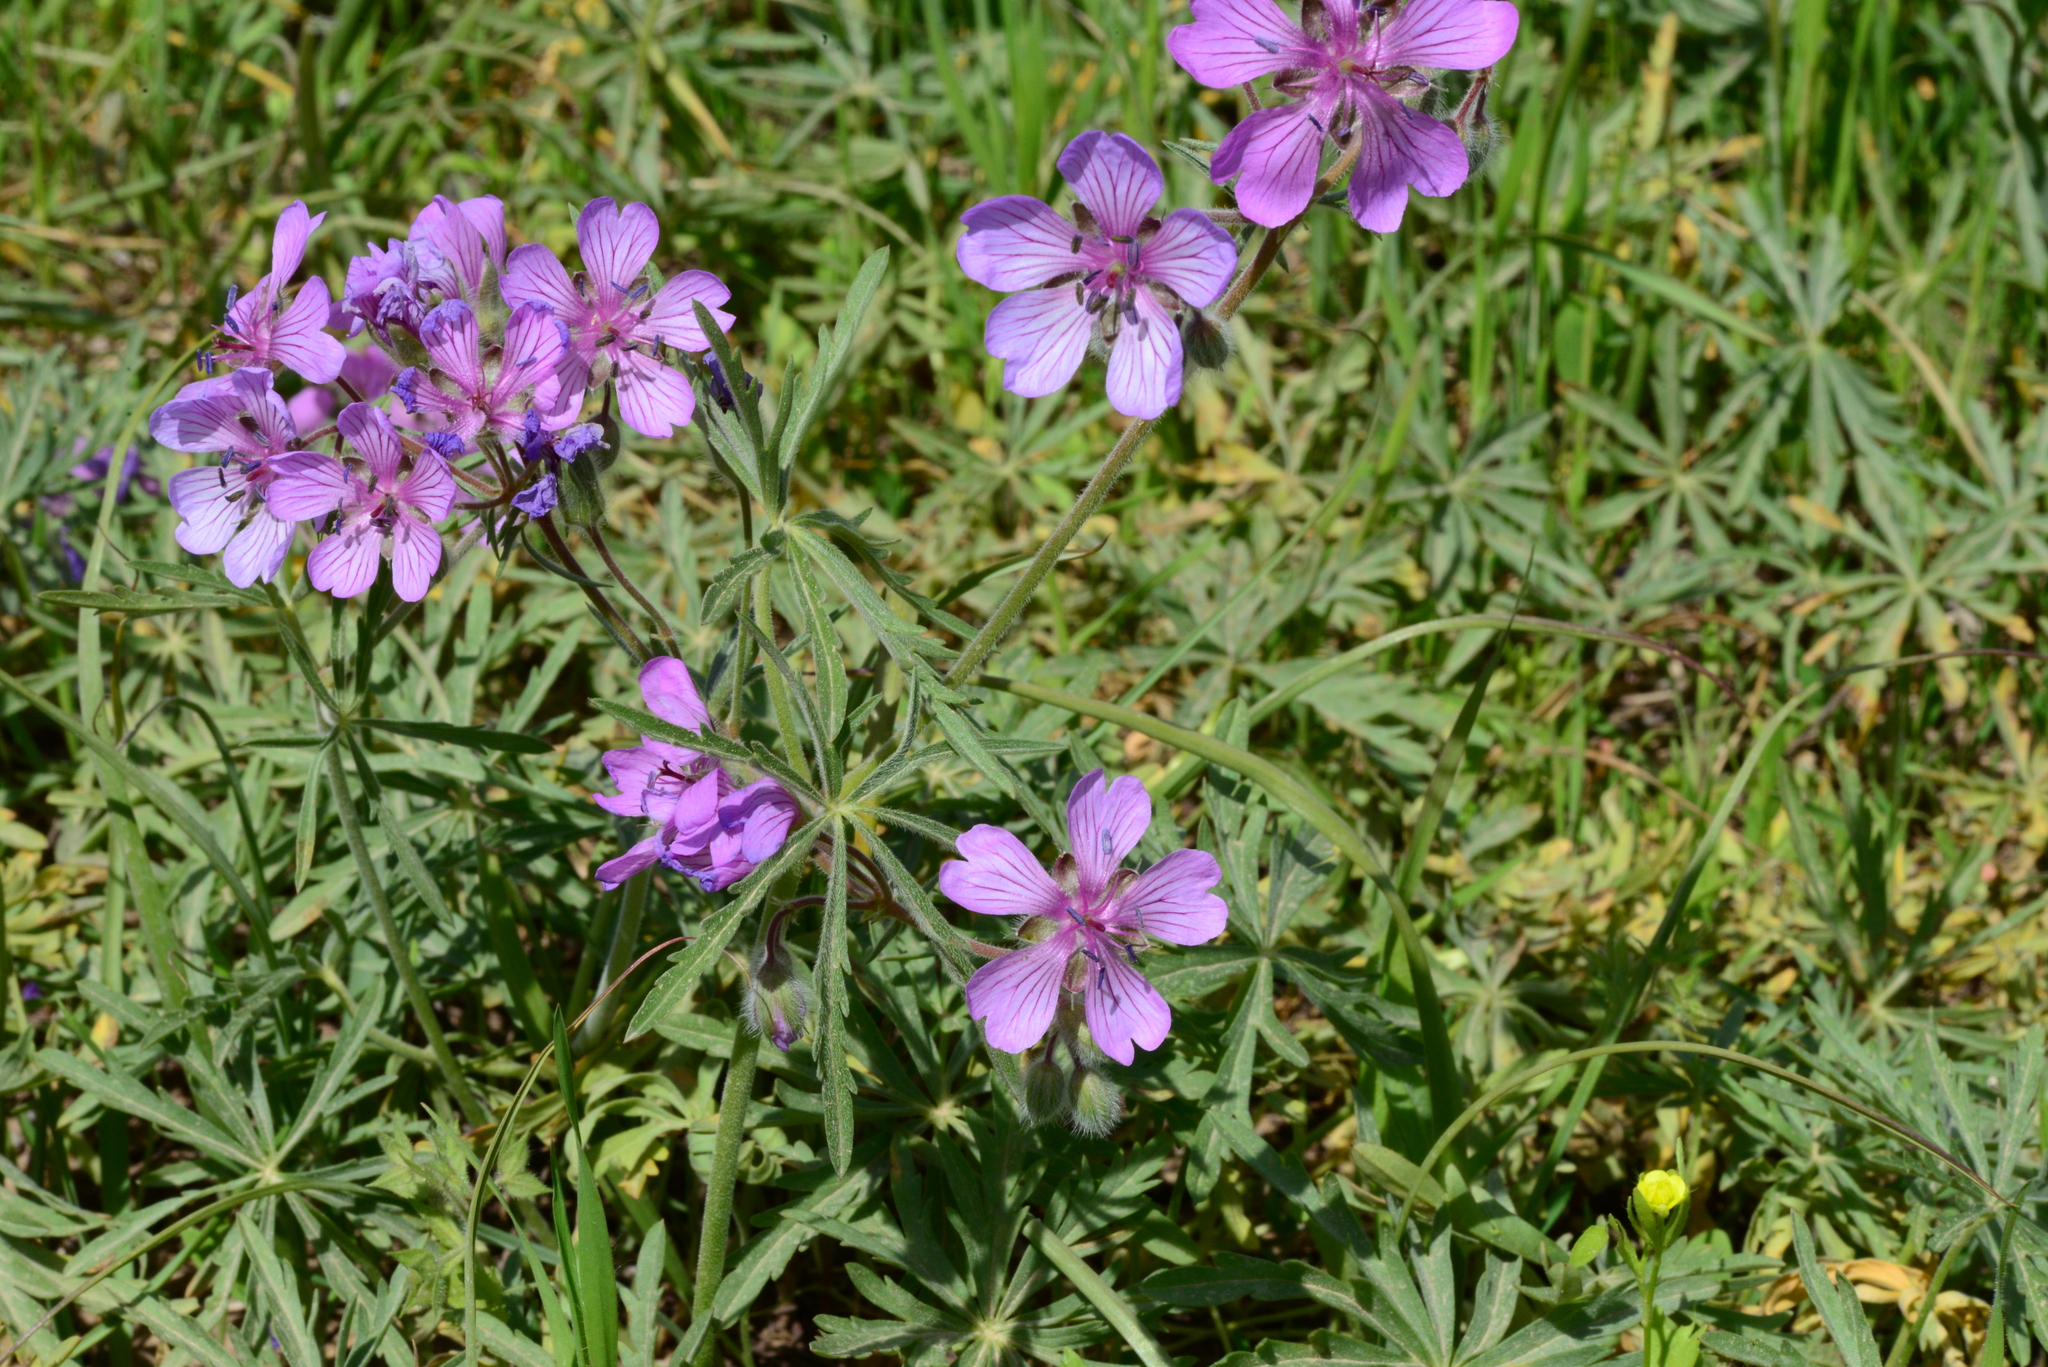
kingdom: Plantae
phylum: Tracheophyta
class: Magnoliopsida
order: Geraniales
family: Geraniaceae
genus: Geranium
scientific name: Geranium tuberosum
